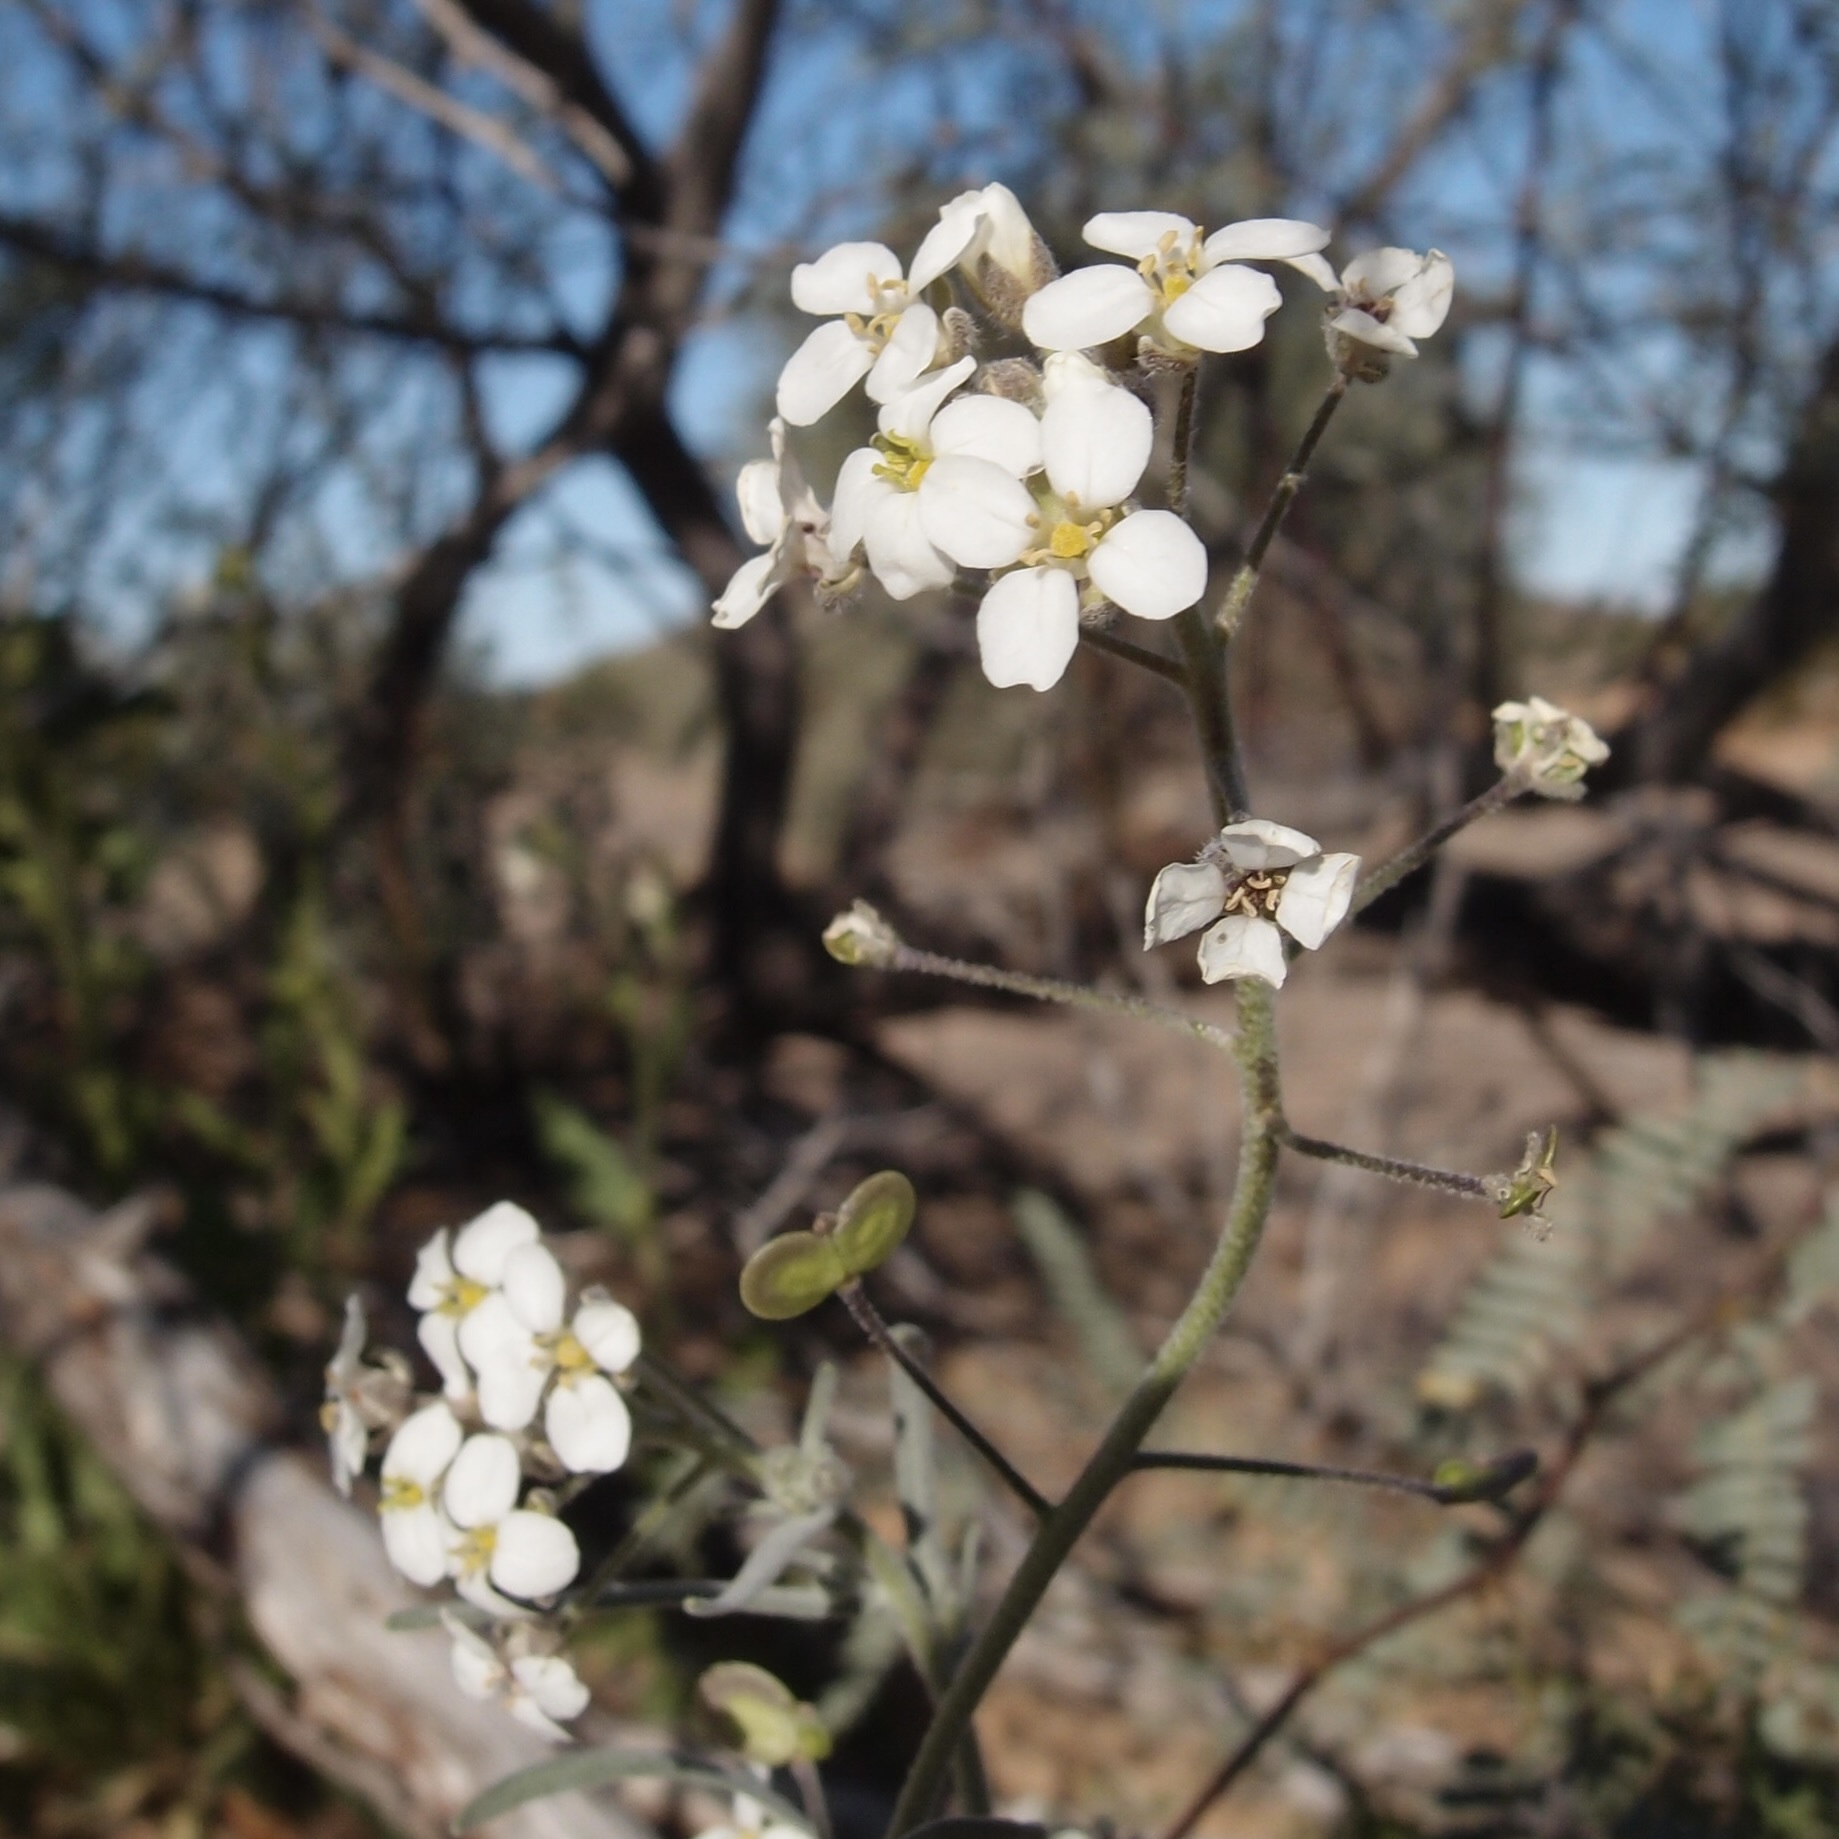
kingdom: Plantae
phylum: Tracheophyta
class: Magnoliopsida
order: Brassicales
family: Brassicaceae
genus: Dimorphocarpa
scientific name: Dimorphocarpa pinnatifida
